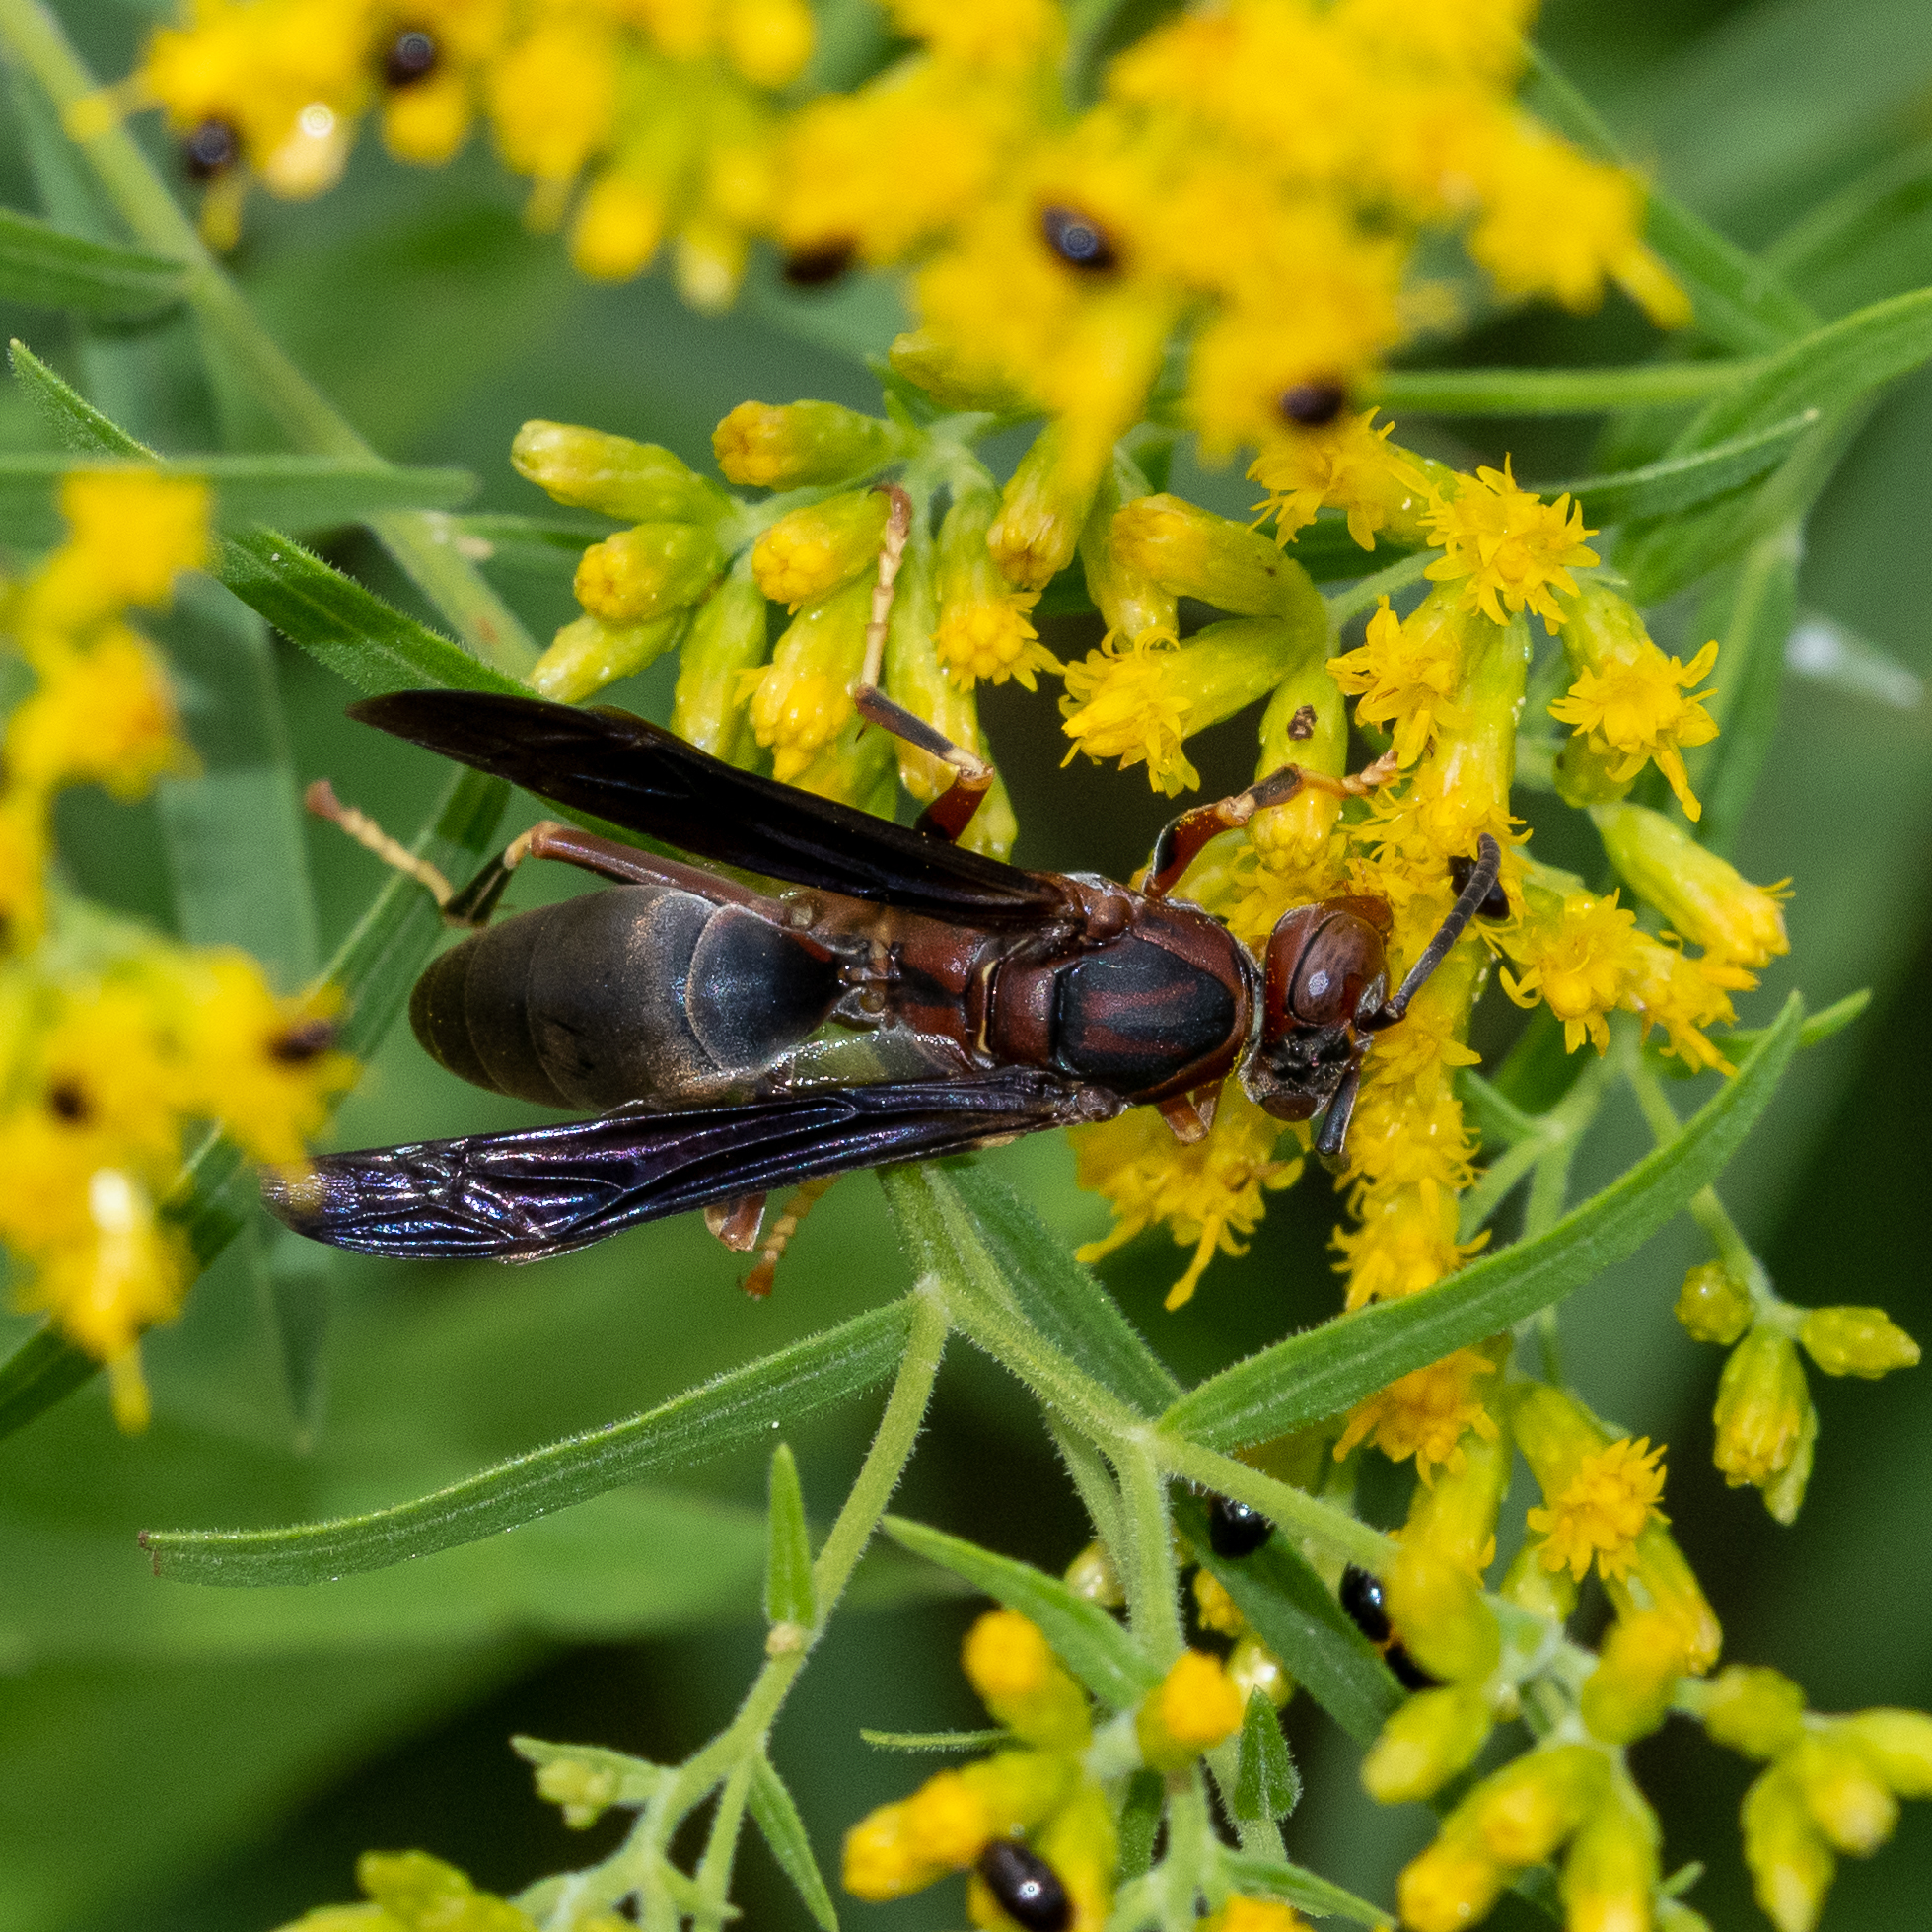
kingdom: Animalia
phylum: Arthropoda
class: Insecta
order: Hymenoptera
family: Eumenidae
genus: Polistes
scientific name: Polistes metricus
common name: Metric paper wasp
